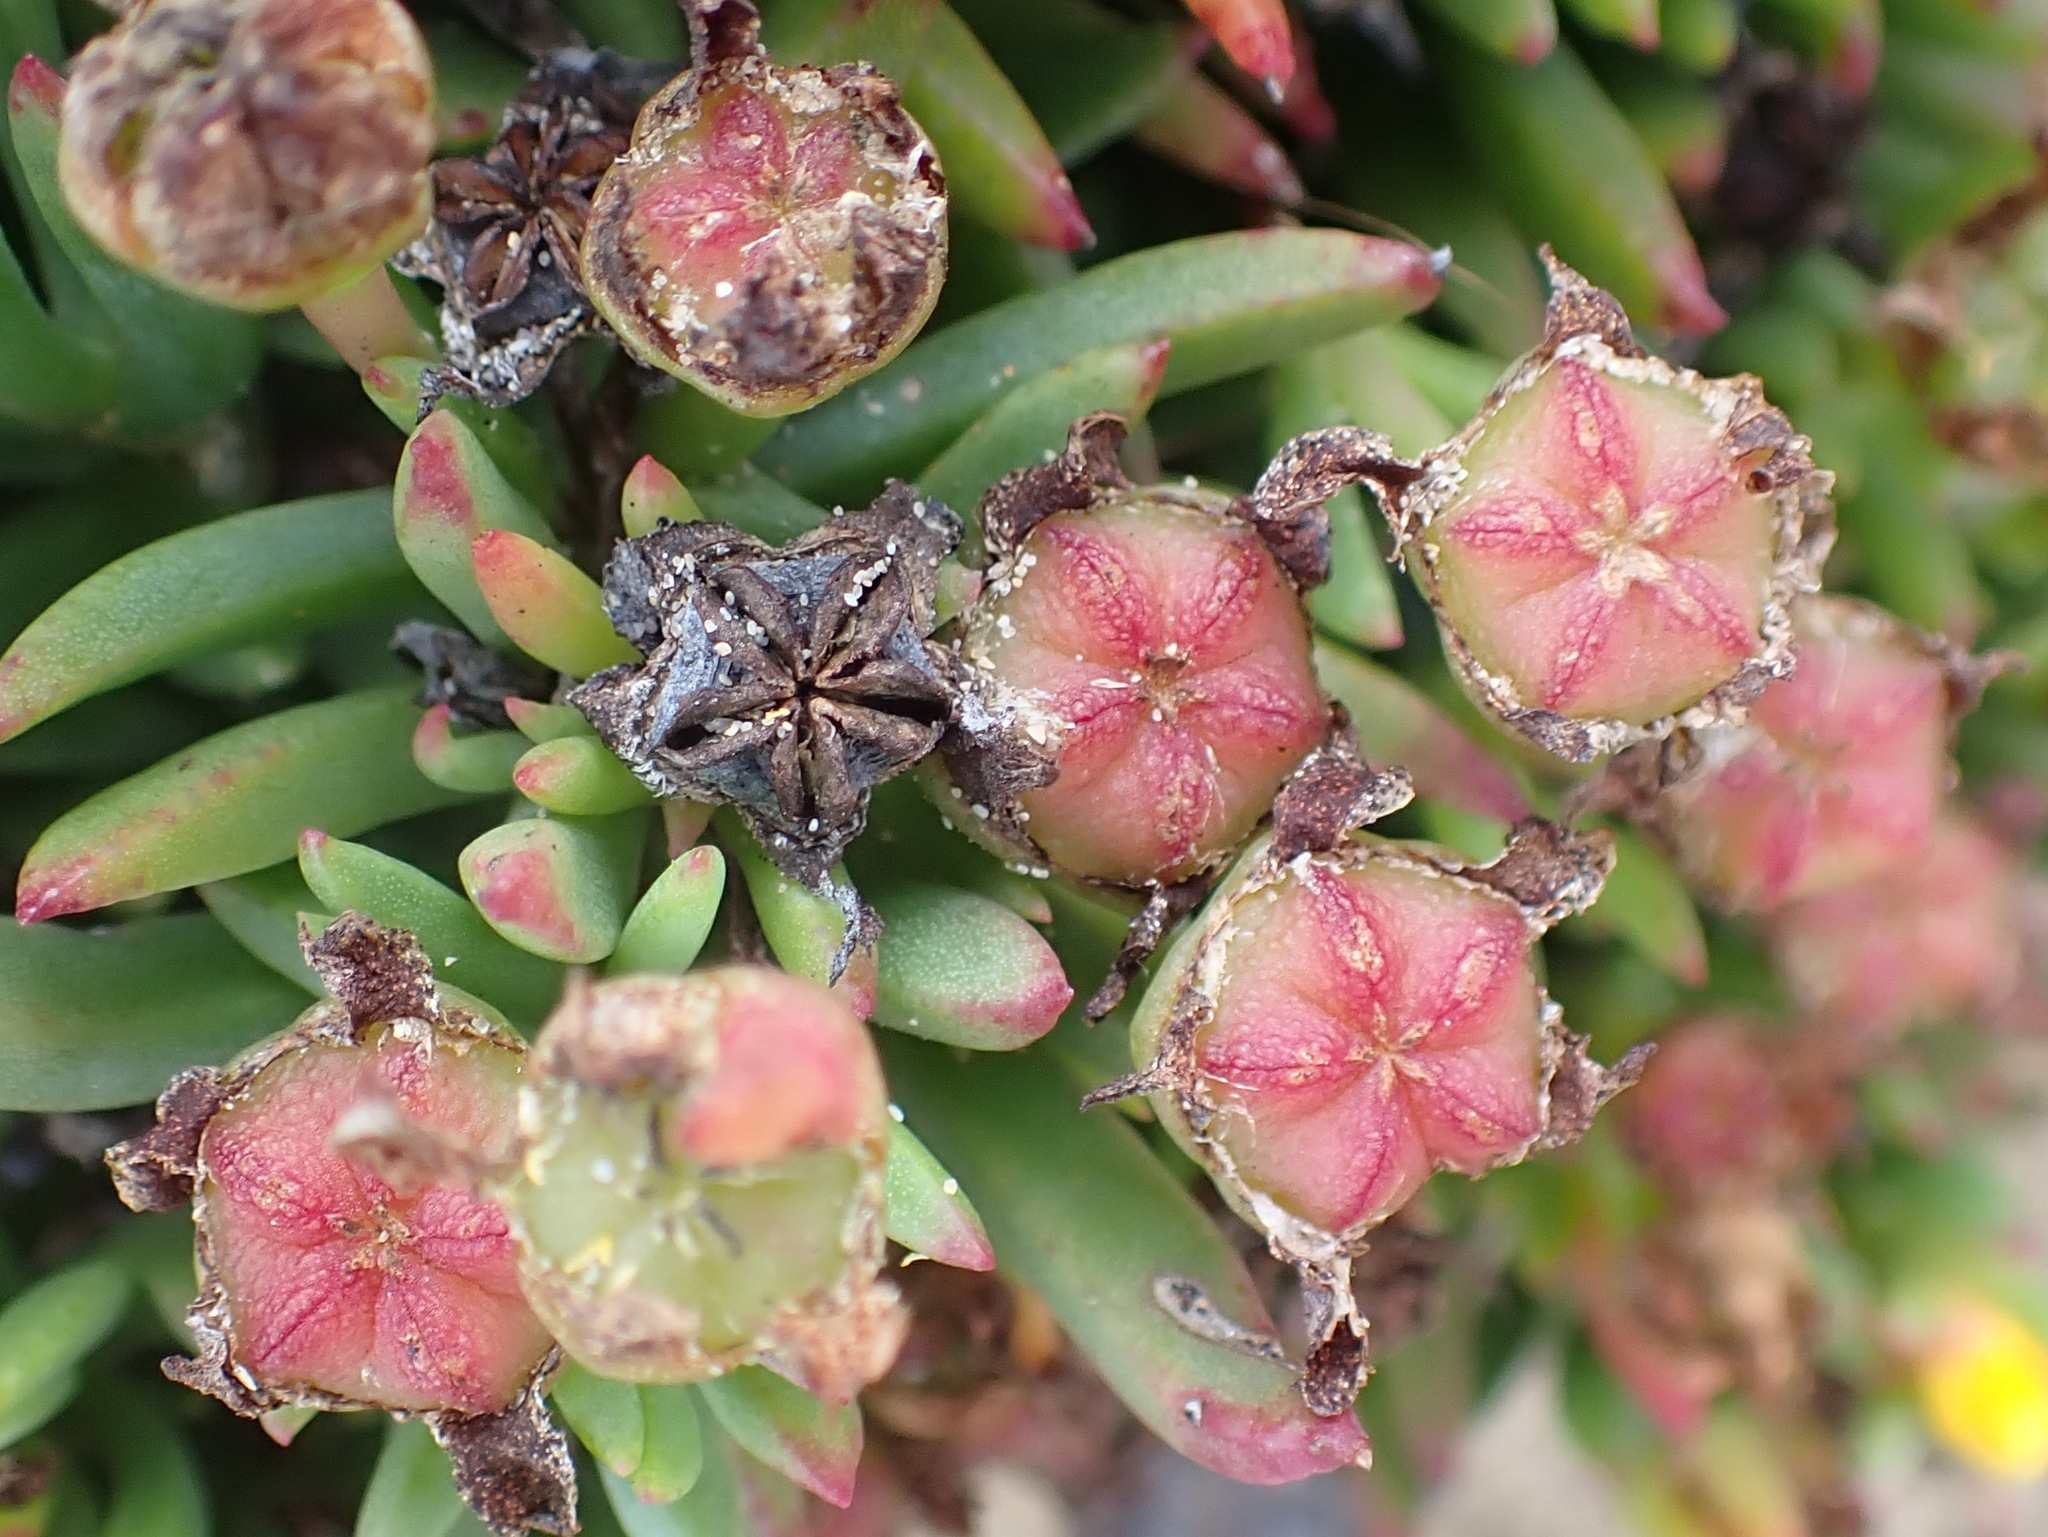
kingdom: Plantae
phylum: Tracheophyta
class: Magnoliopsida
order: Caryophyllales
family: Aizoaceae
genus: Lampranthus
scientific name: Lampranthus fergusoniae
